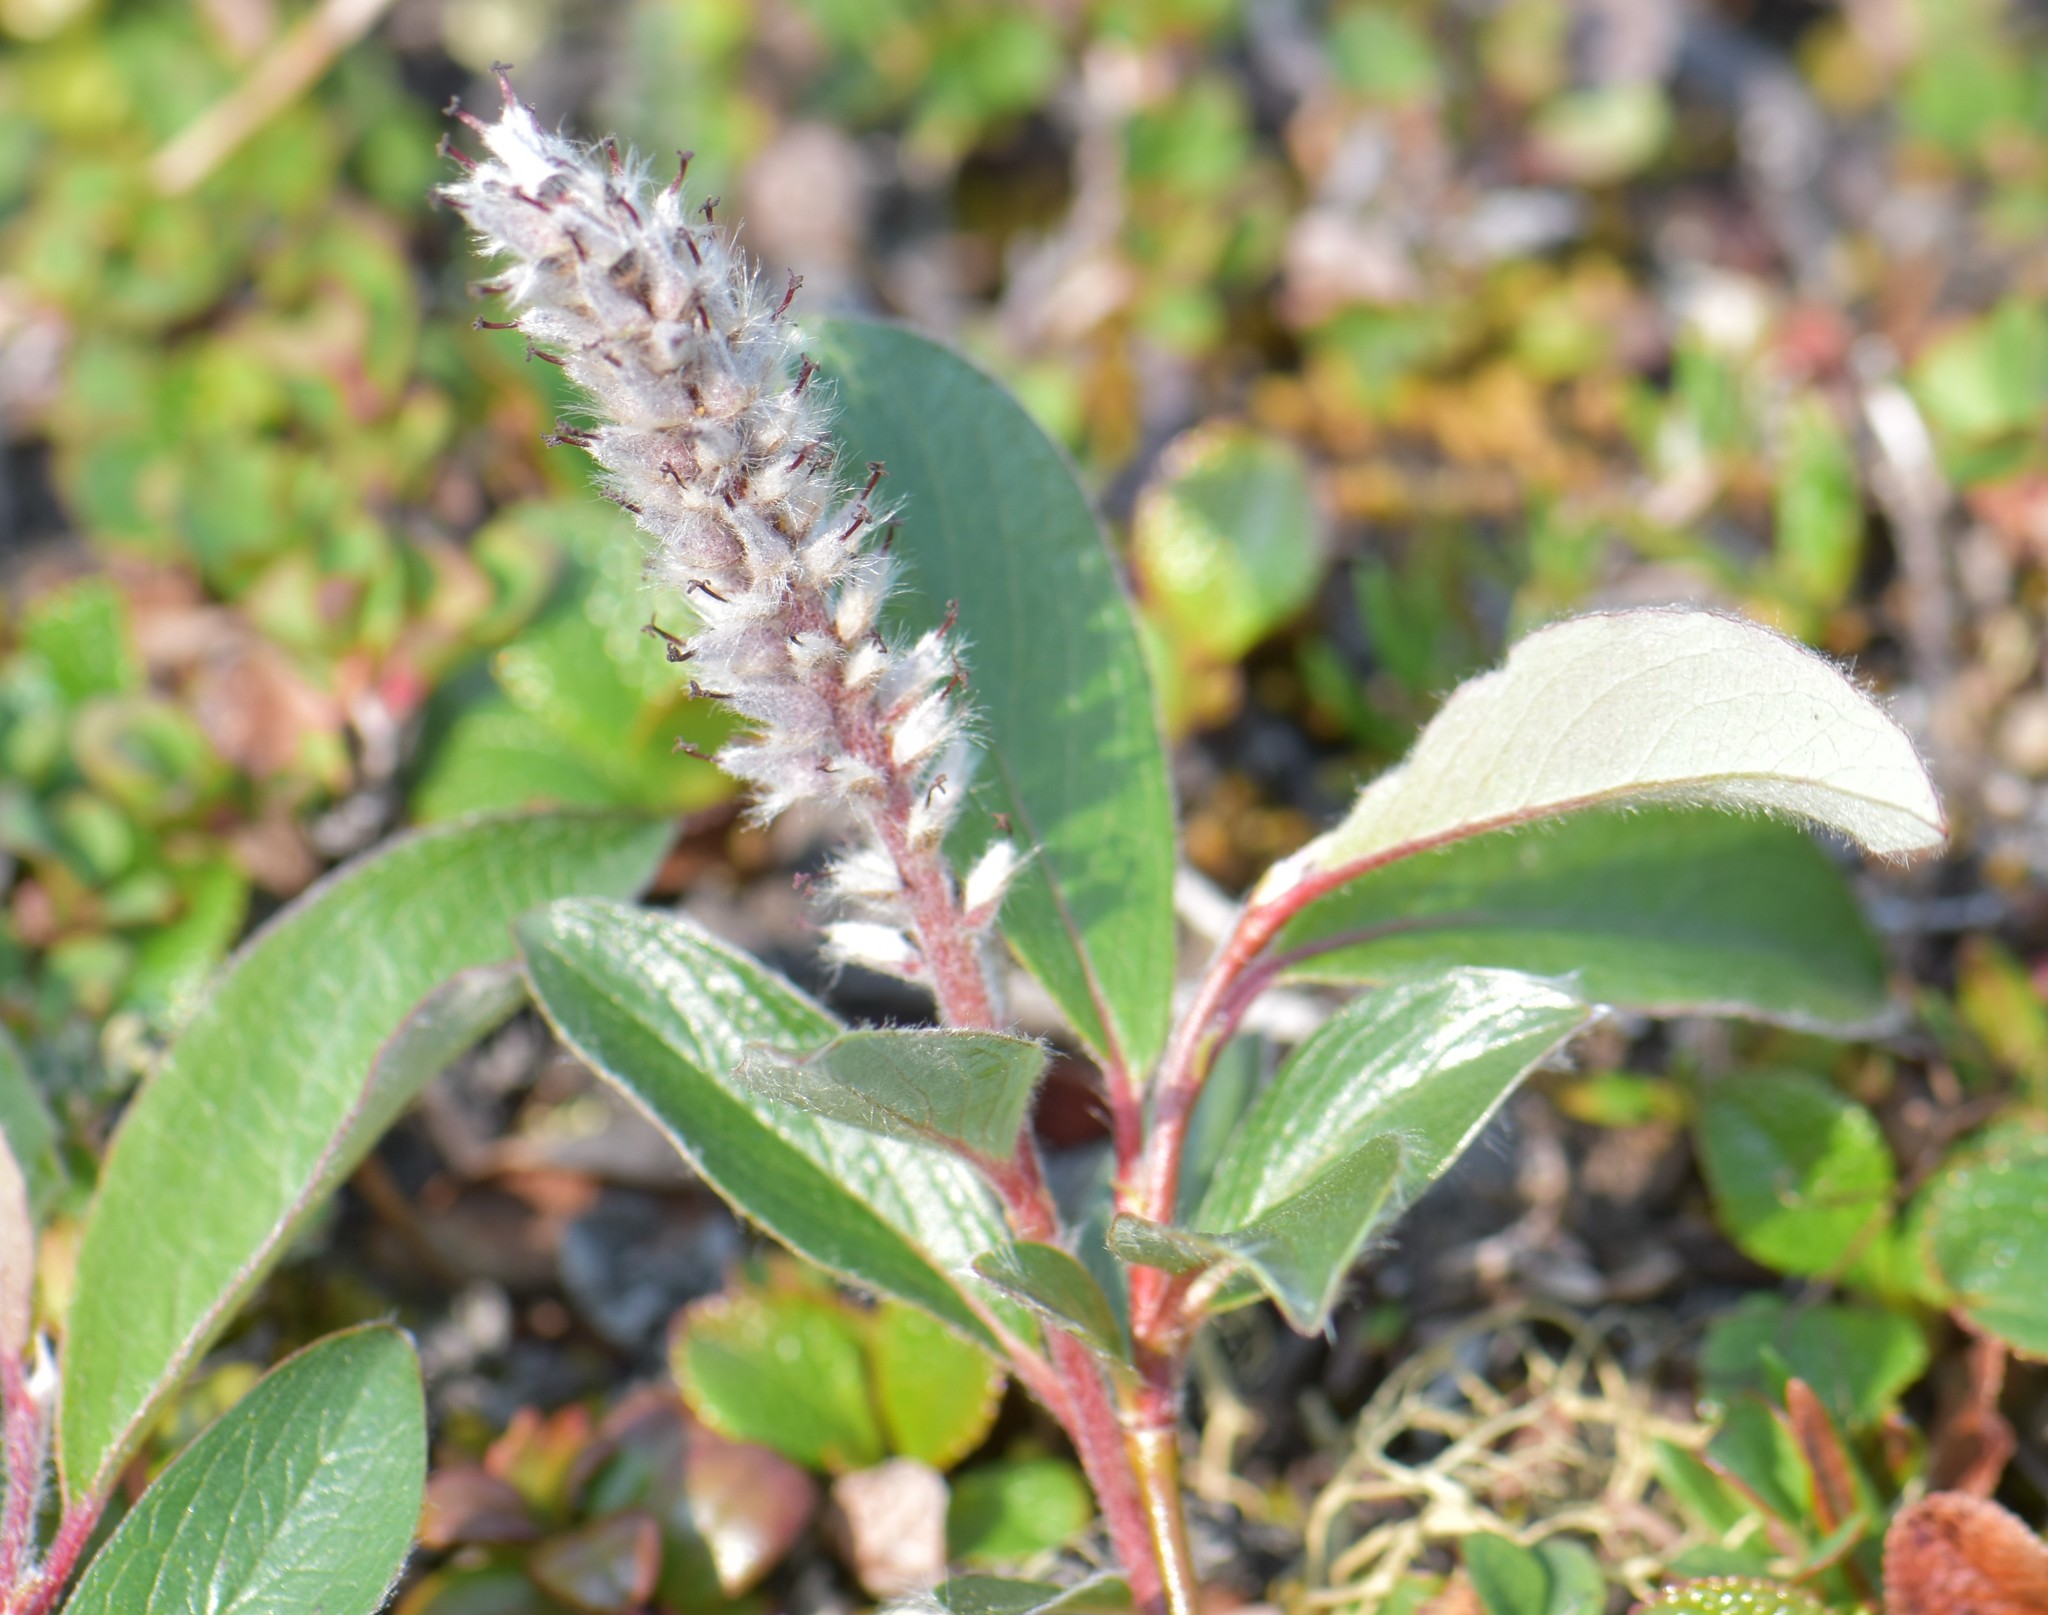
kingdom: Plantae
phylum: Tracheophyta
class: Magnoliopsida
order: Malpighiales
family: Salicaceae
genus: Salix
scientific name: Salix arctica
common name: Arctic willow
